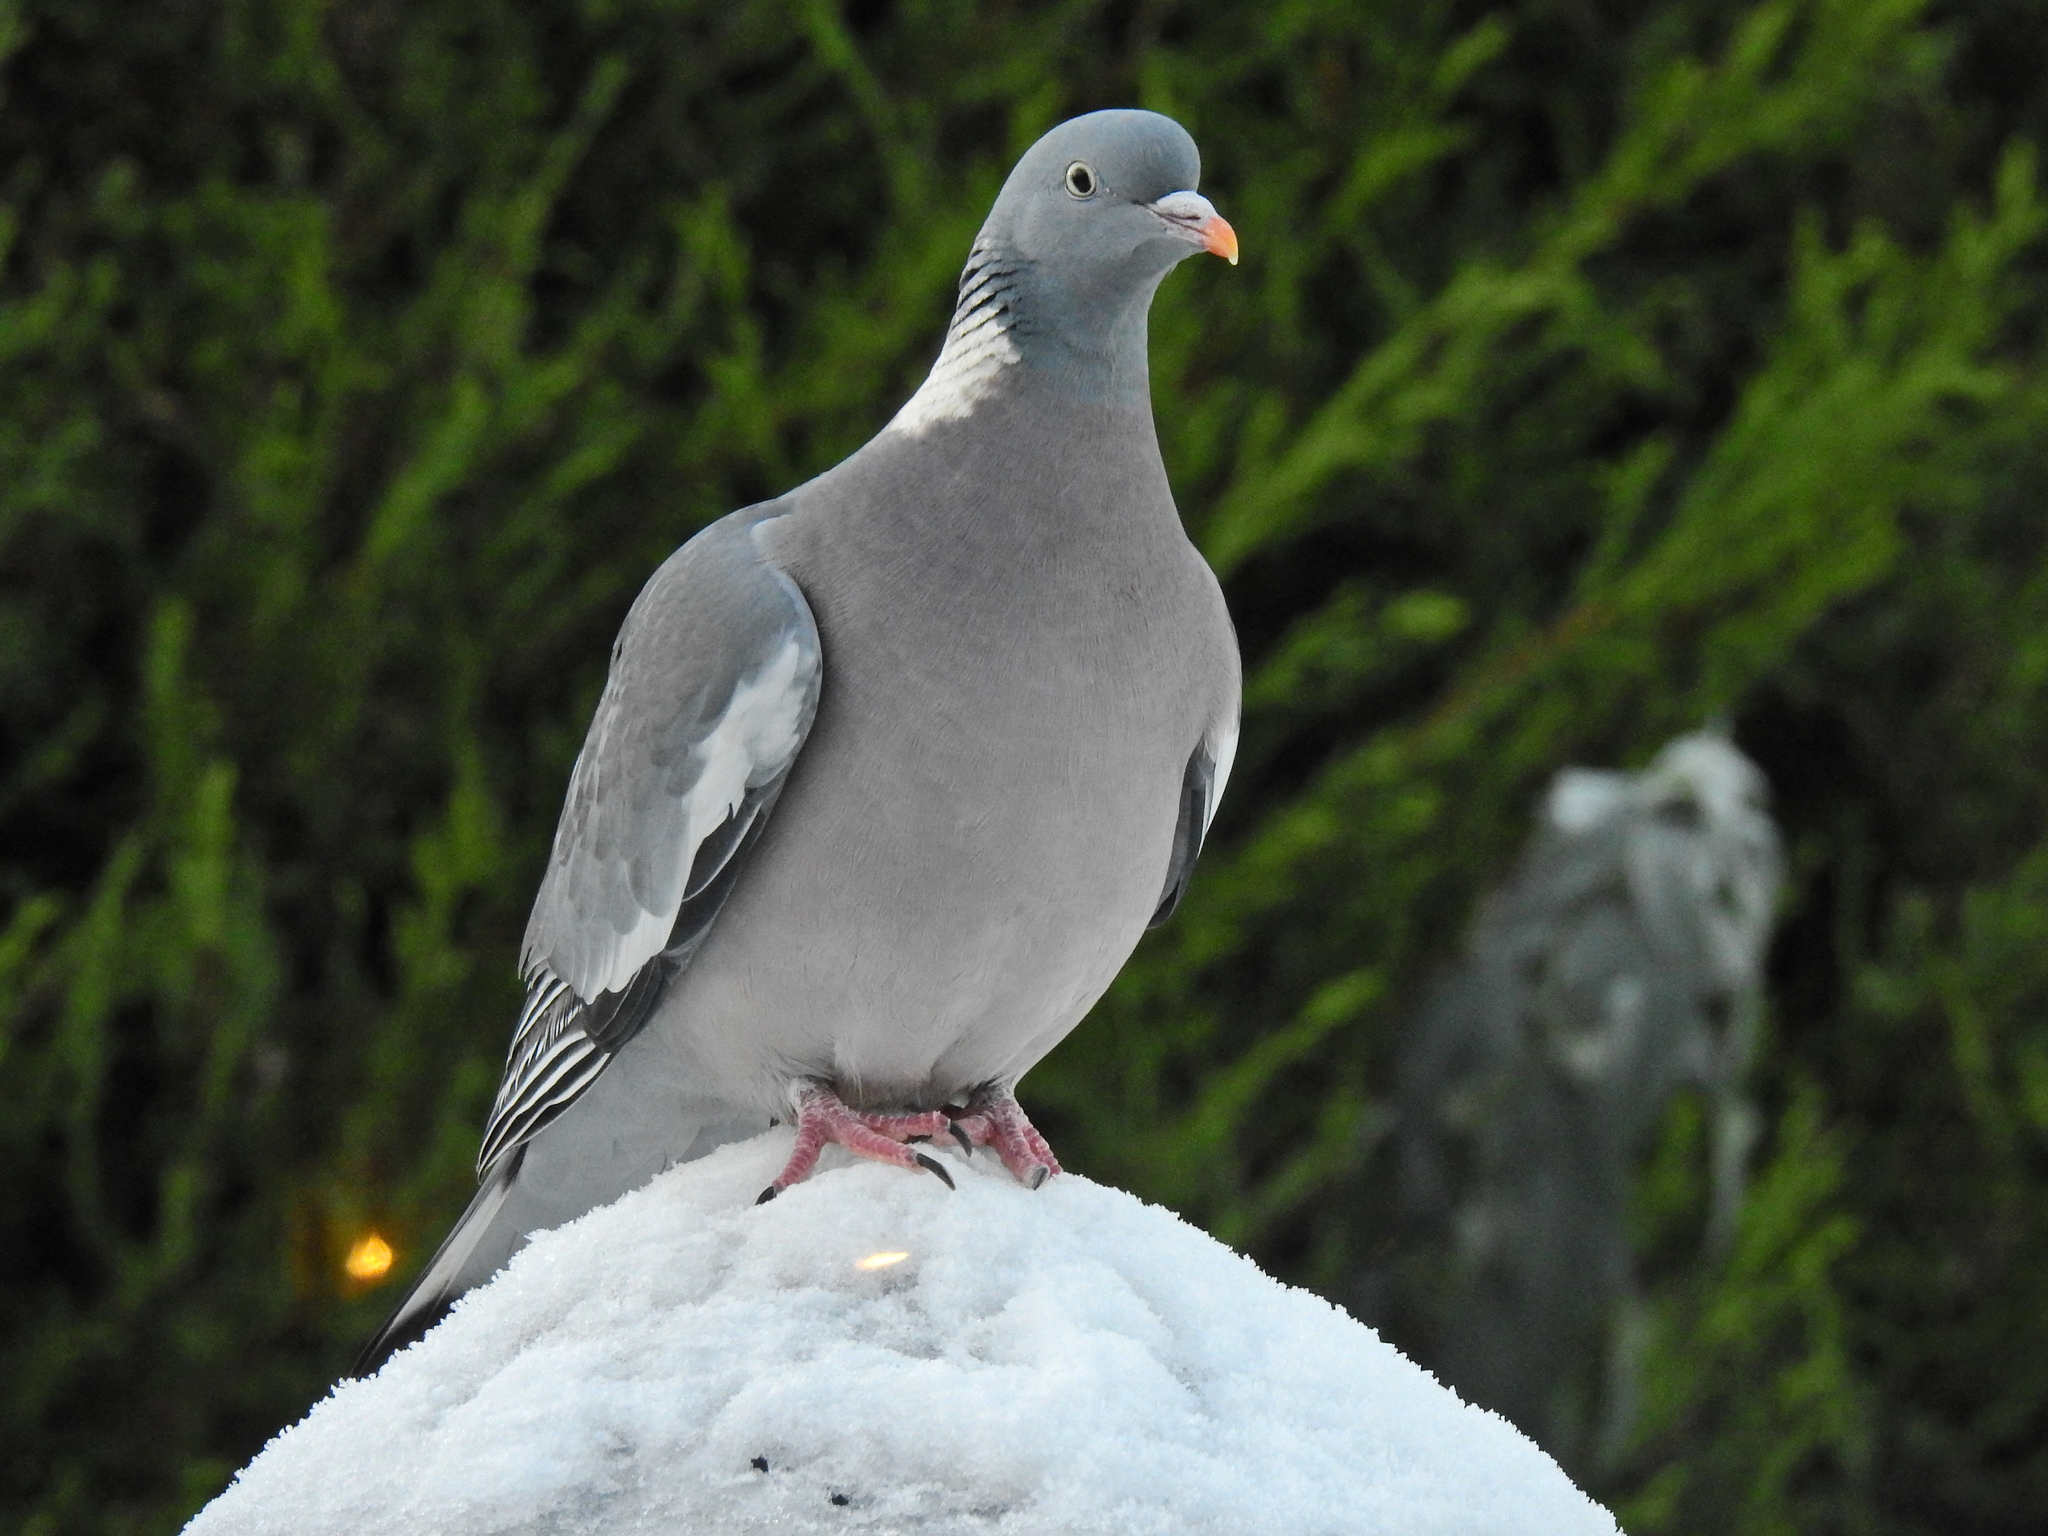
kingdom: Animalia
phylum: Chordata
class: Aves
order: Columbiformes
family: Columbidae
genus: Columba
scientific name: Columba palumbus
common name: Common wood pigeon
